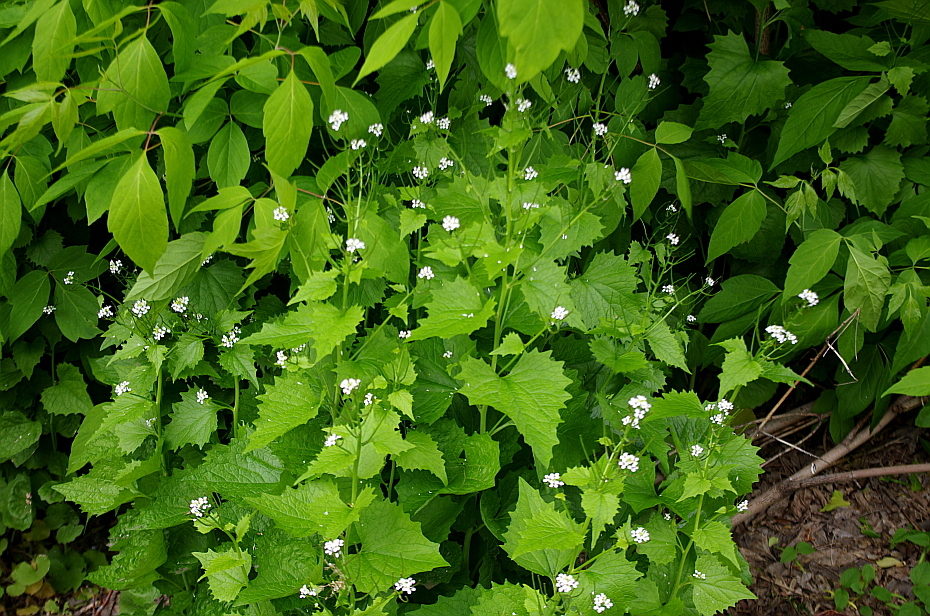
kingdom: Plantae
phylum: Tracheophyta
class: Magnoliopsida
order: Brassicales
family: Brassicaceae
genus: Alliaria
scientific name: Alliaria petiolata
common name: Garlic mustard
